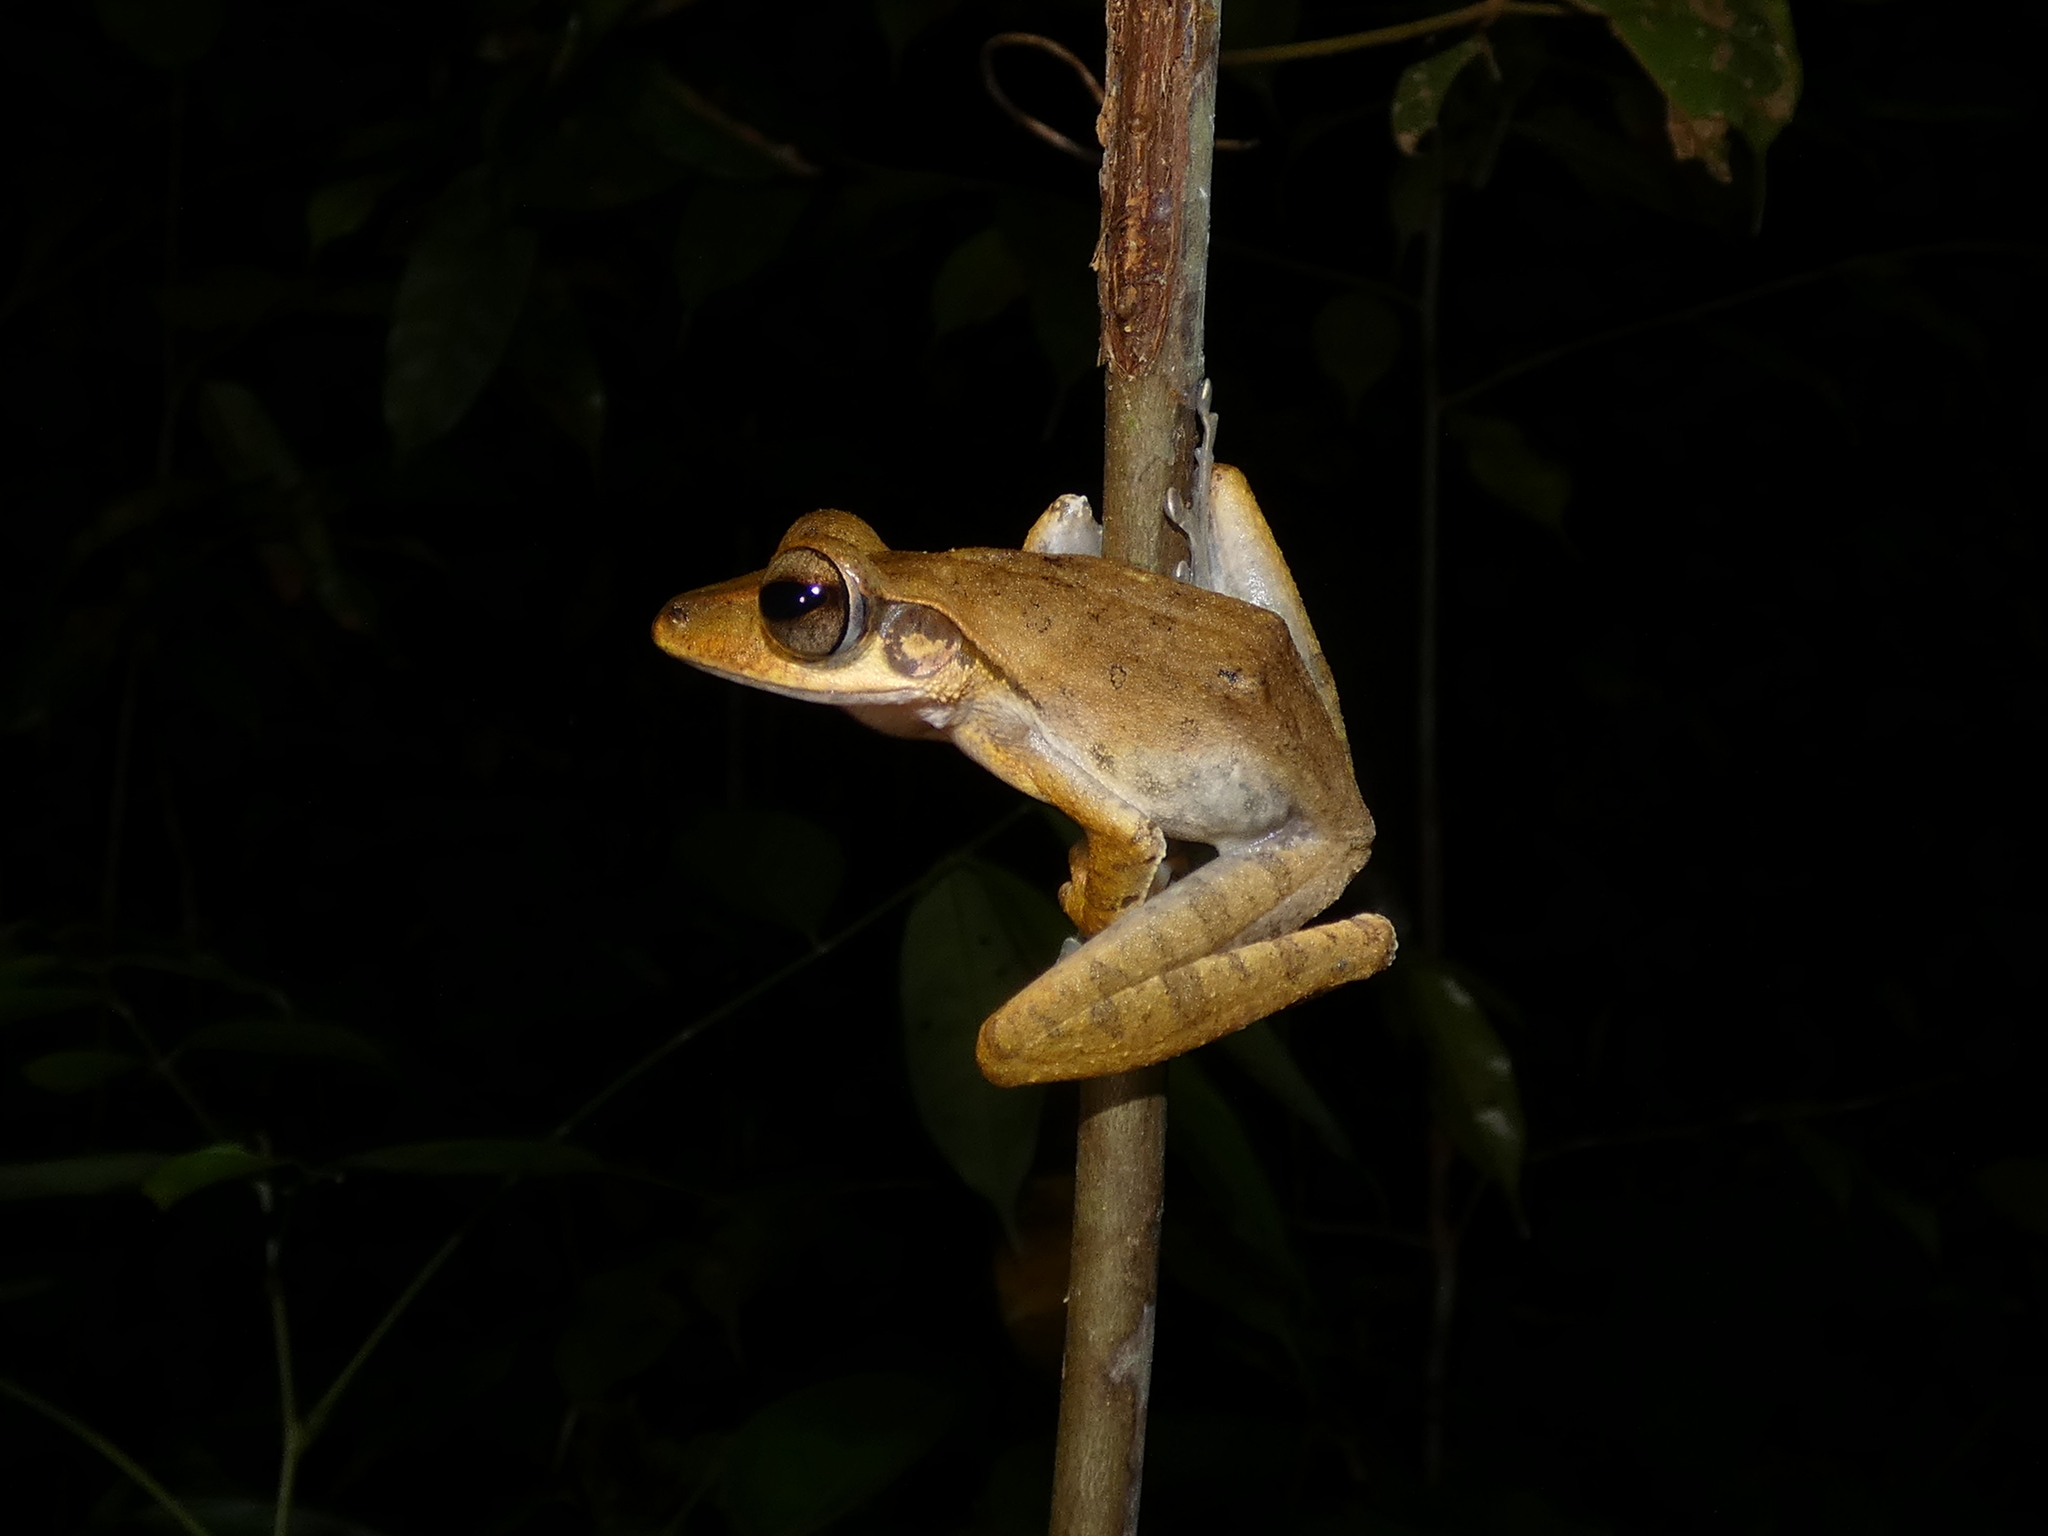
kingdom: Animalia
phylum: Chordata
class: Amphibia
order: Anura
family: Rhacophoridae
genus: Polypedates
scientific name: Polypedates colletti
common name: Collett’s tree frog
